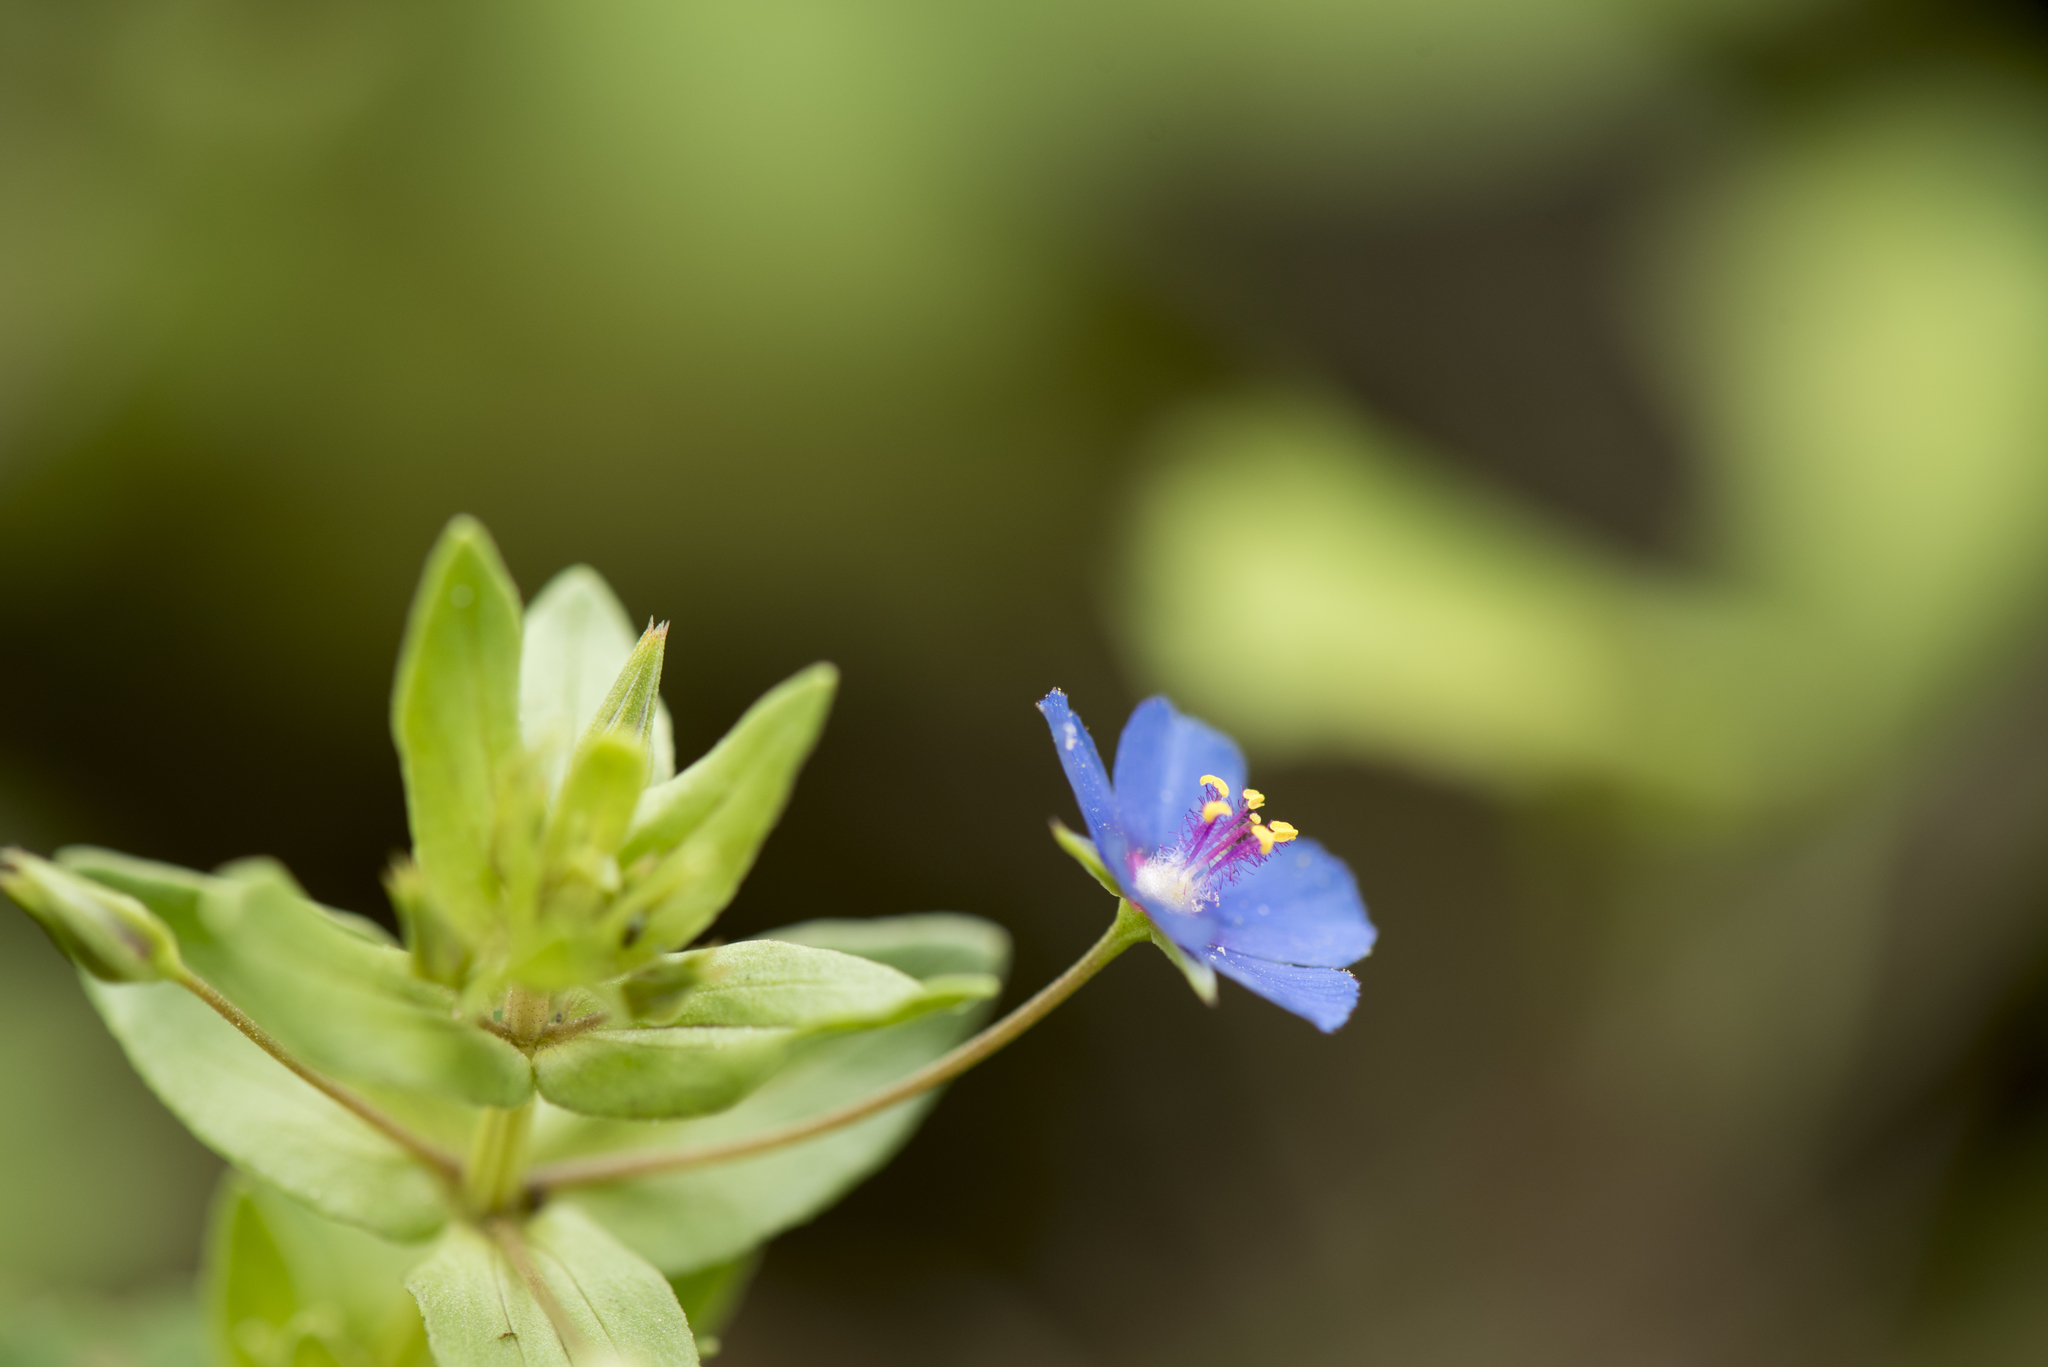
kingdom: Plantae
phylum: Tracheophyta
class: Magnoliopsida
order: Ericales
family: Primulaceae
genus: Lysimachia
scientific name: Lysimachia loeflingii
